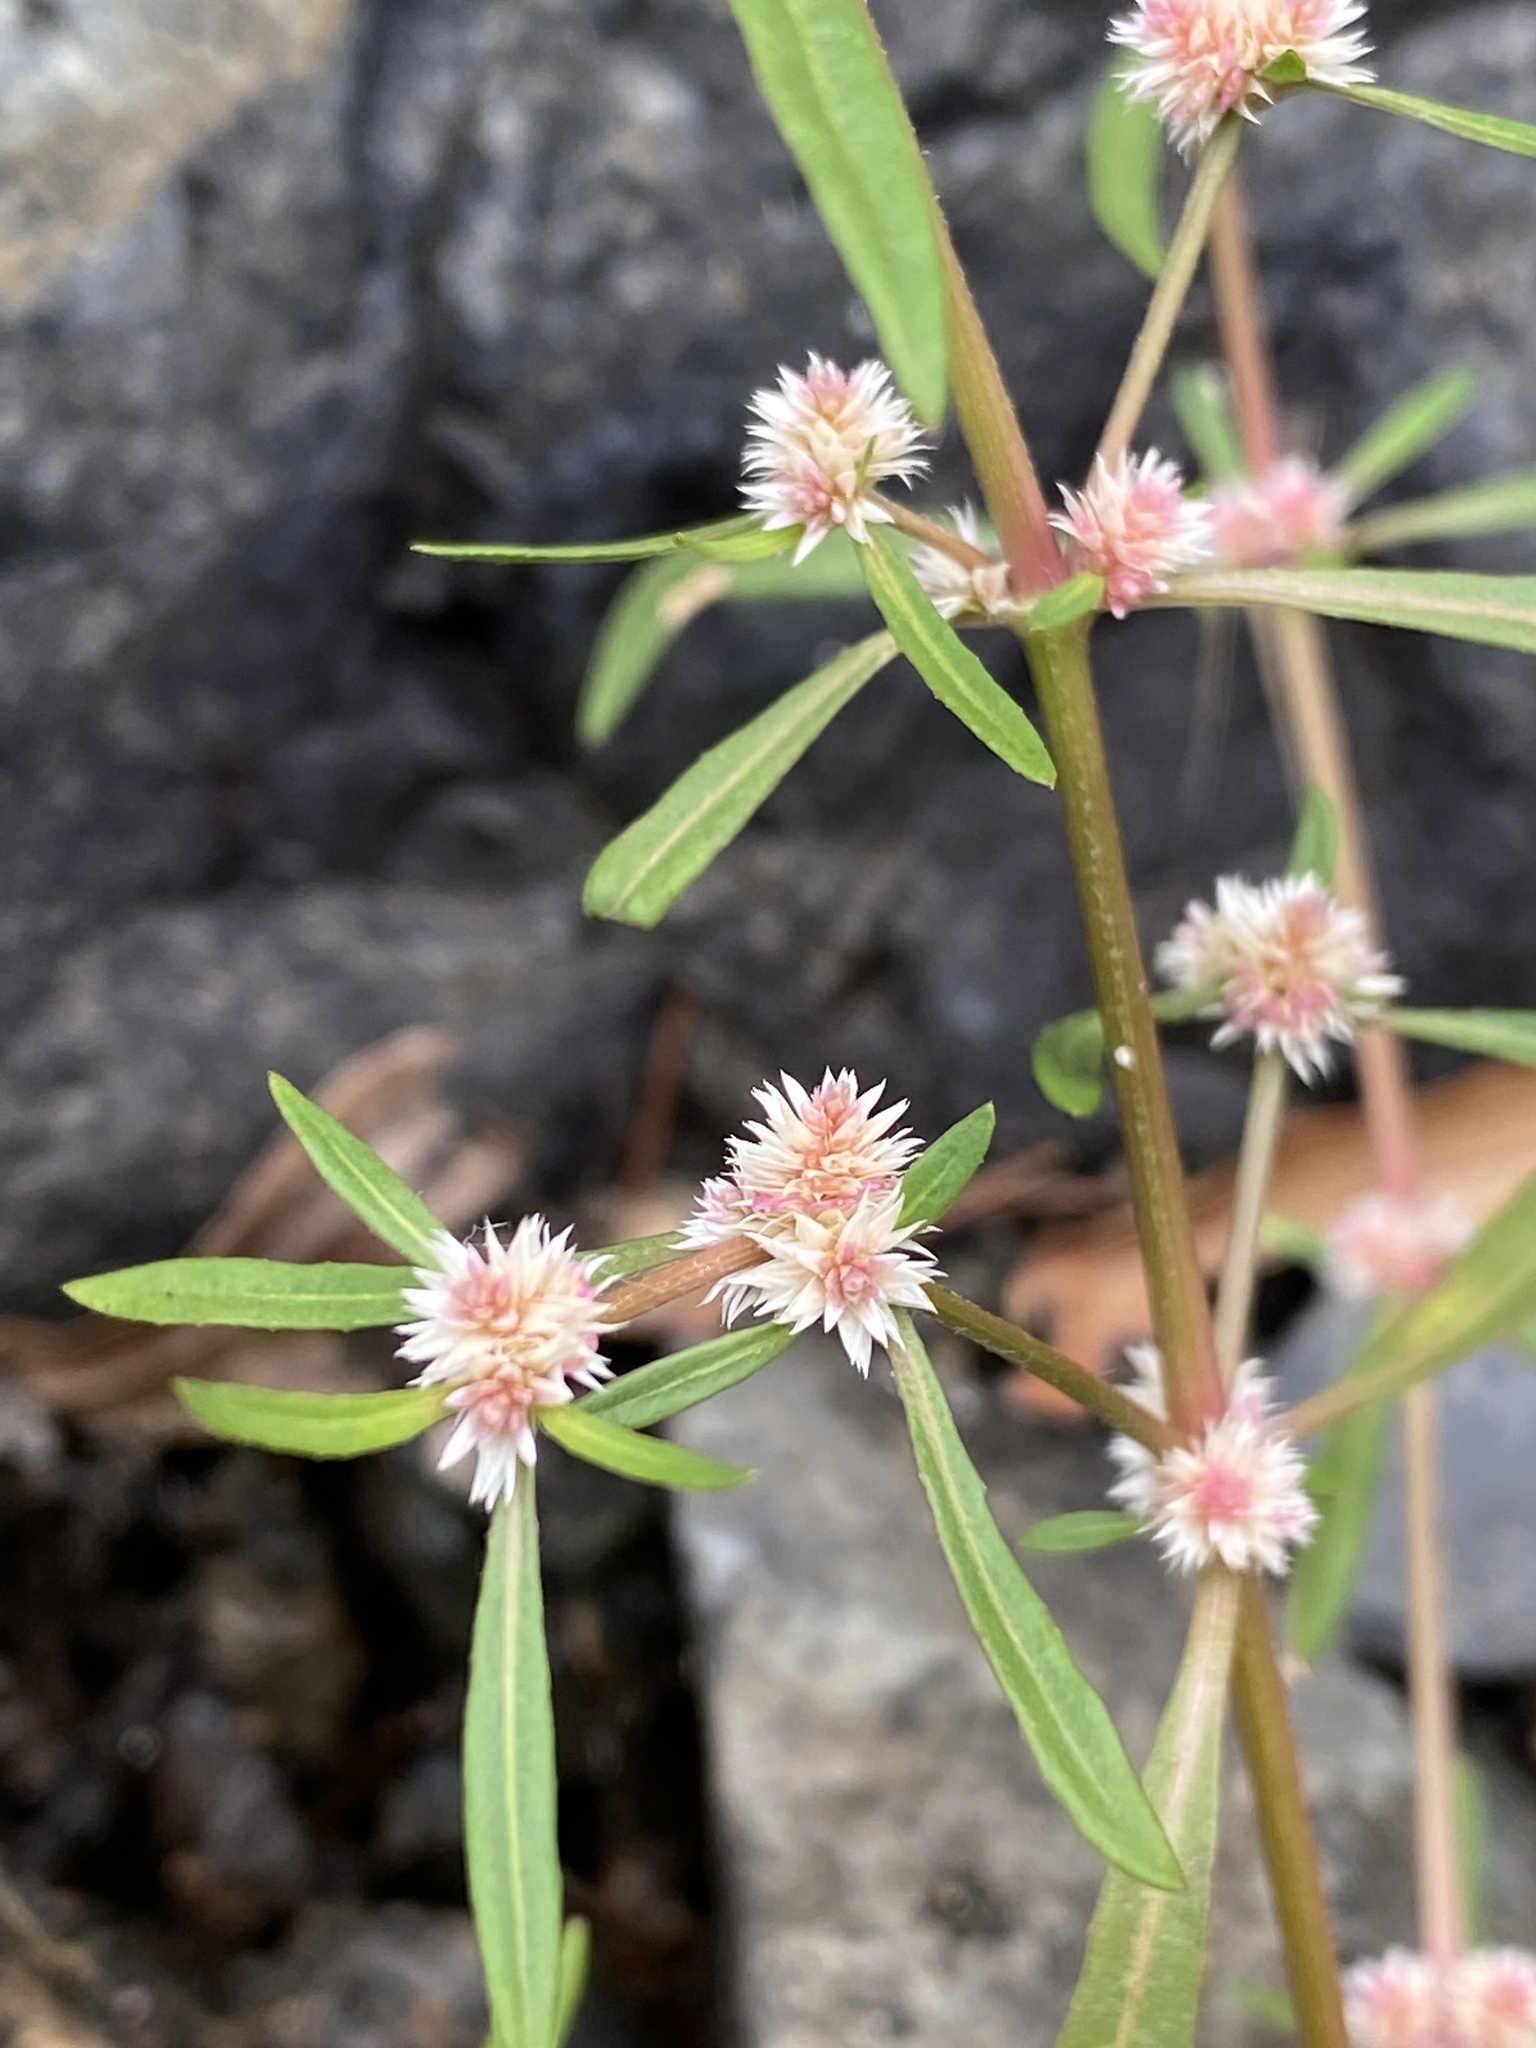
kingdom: Plantae
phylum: Tracheophyta
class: Magnoliopsida
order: Caryophyllales
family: Amaranthaceae
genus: Alternanthera
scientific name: Alternanthera denticulata
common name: Lesser joyweed
